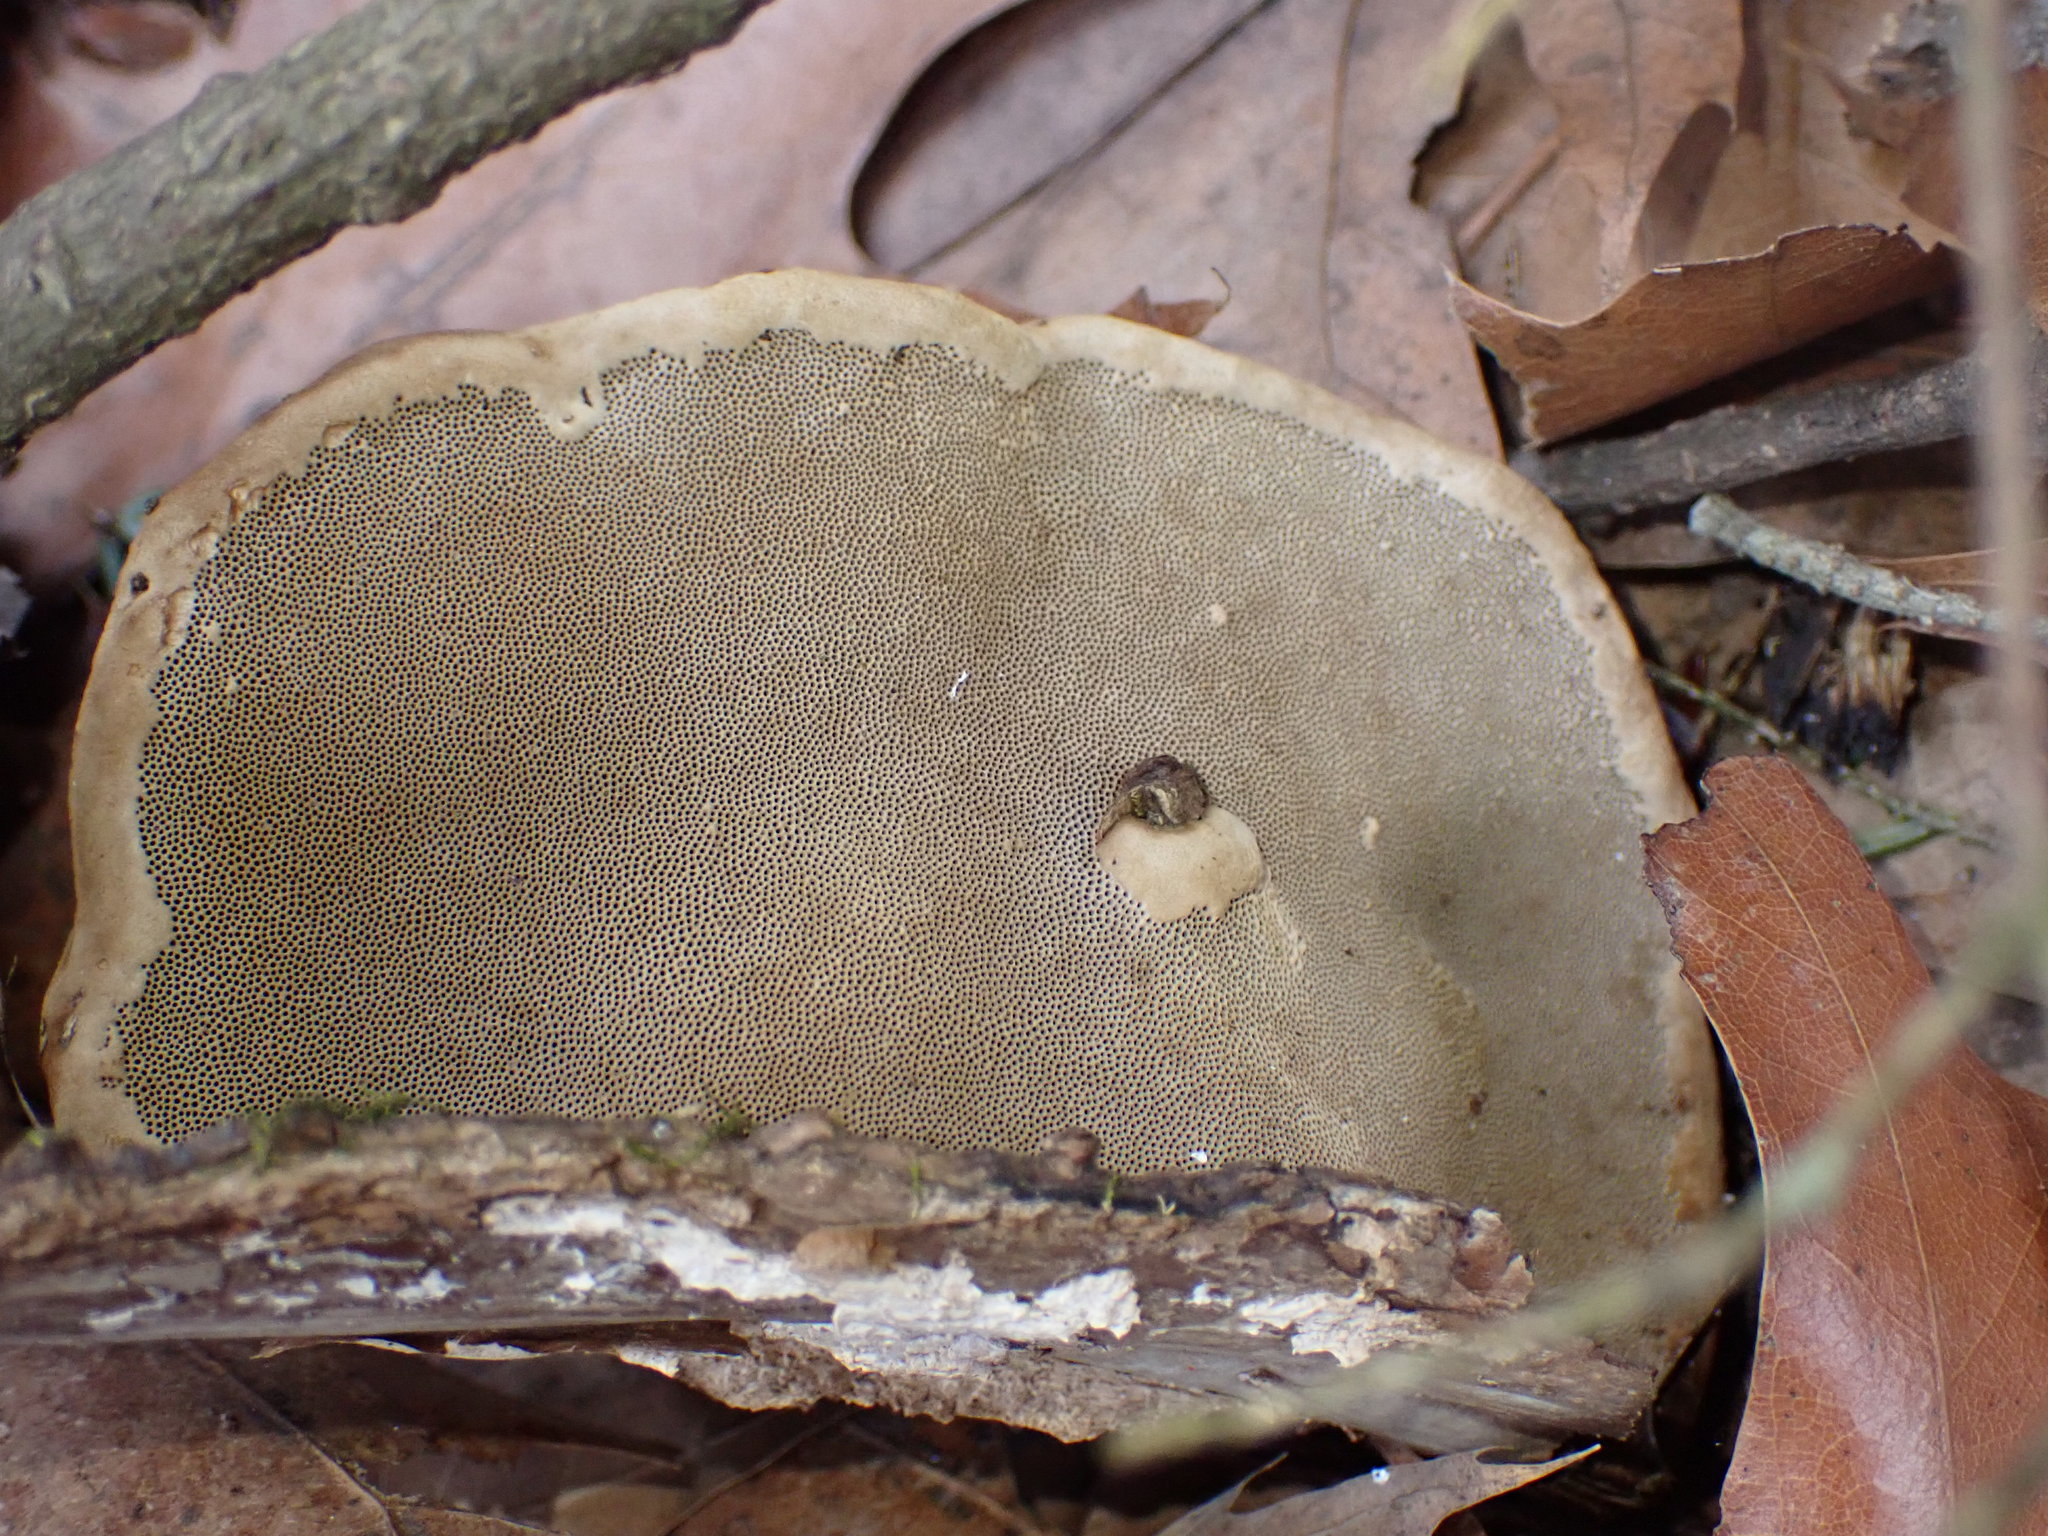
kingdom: Fungi
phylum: Basidiomycota
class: Agaricomycetes
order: Polyporales
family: Polyporaceae
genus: Fomes
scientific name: Fomes fomentarius
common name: Hoof fungus
